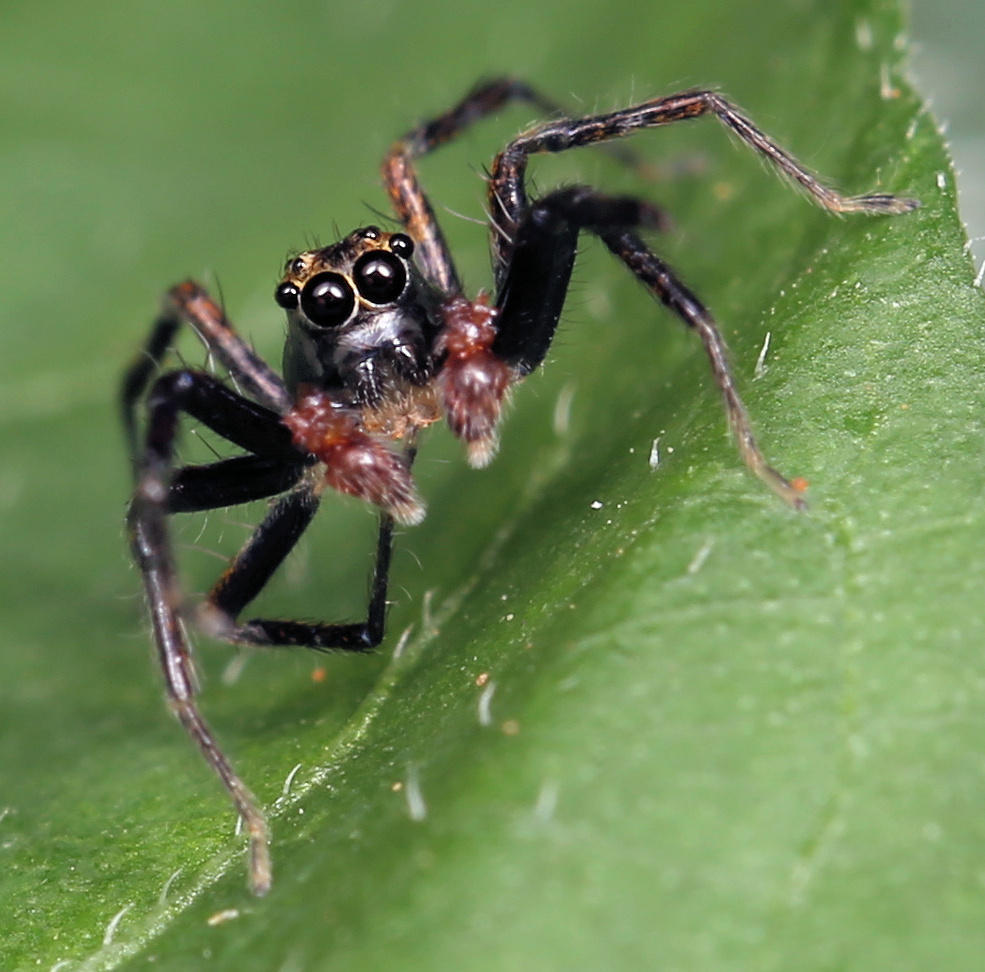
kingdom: Animalia
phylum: Arthropoda
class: Arachnida
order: Araneae
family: Salticidae
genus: Asemonea
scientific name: Asemonea clara
